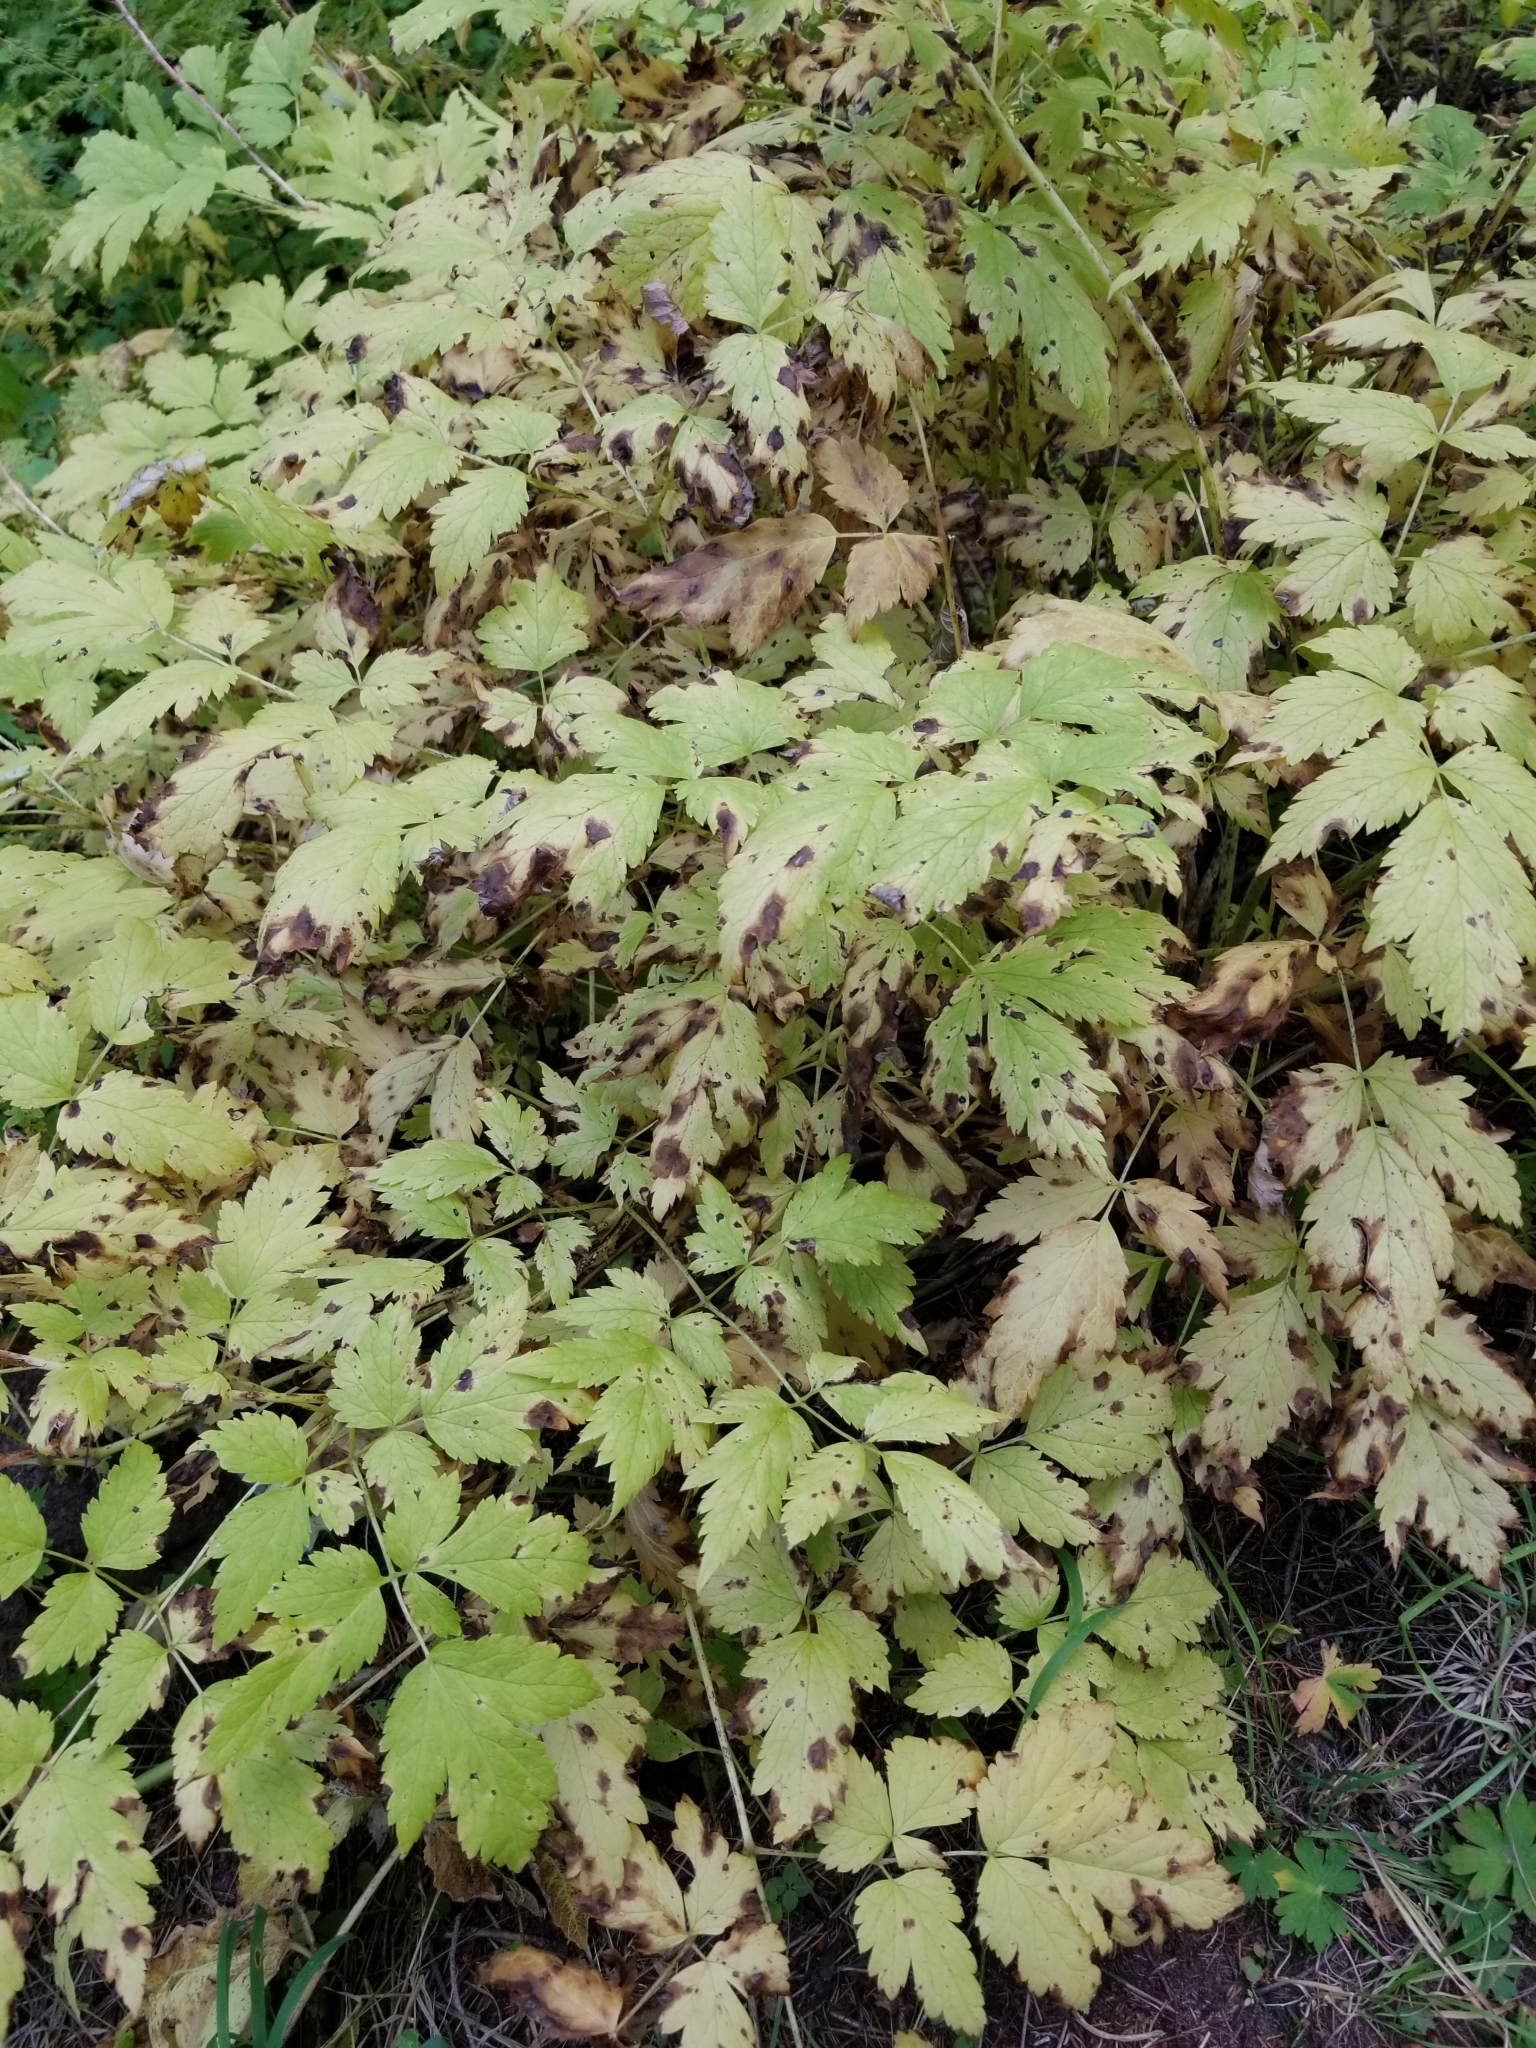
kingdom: Plantae
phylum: Tracheophyta
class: Magnoliopsida
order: Ranunculales
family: Ranunculaceae
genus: Actaea
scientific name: Actaea rubra
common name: Red baneberry
